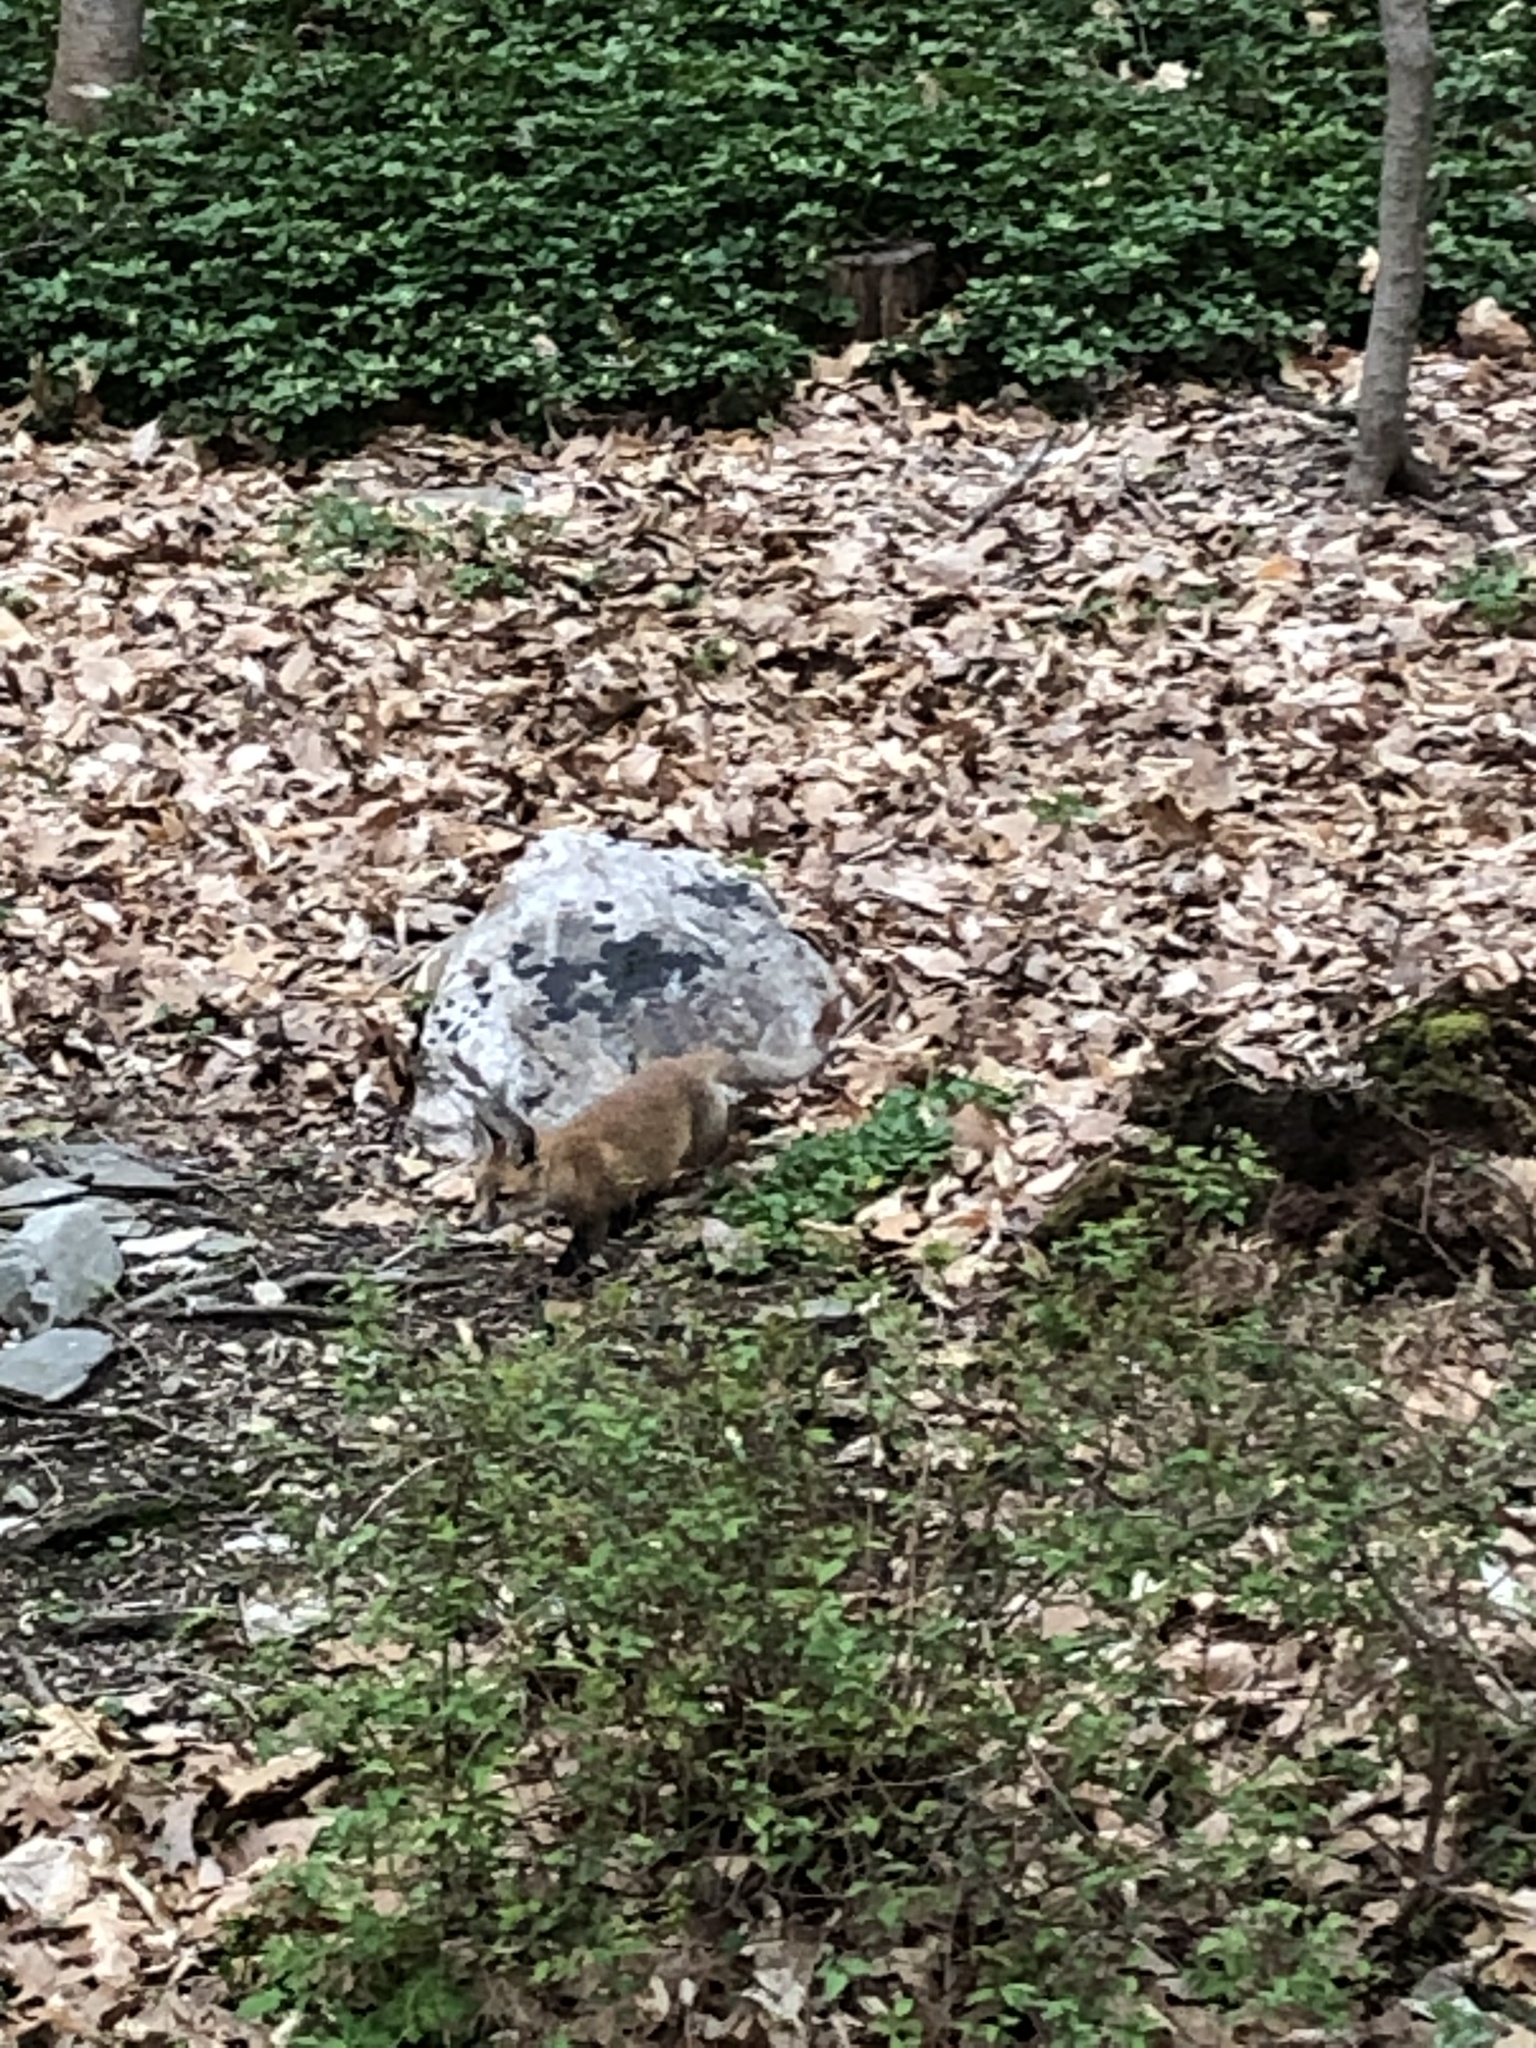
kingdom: Animalia
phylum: Chordata
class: Mammalia
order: Carnivora
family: Canidae
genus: Vulpes
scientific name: Vulpes vulpes
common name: Red fox
